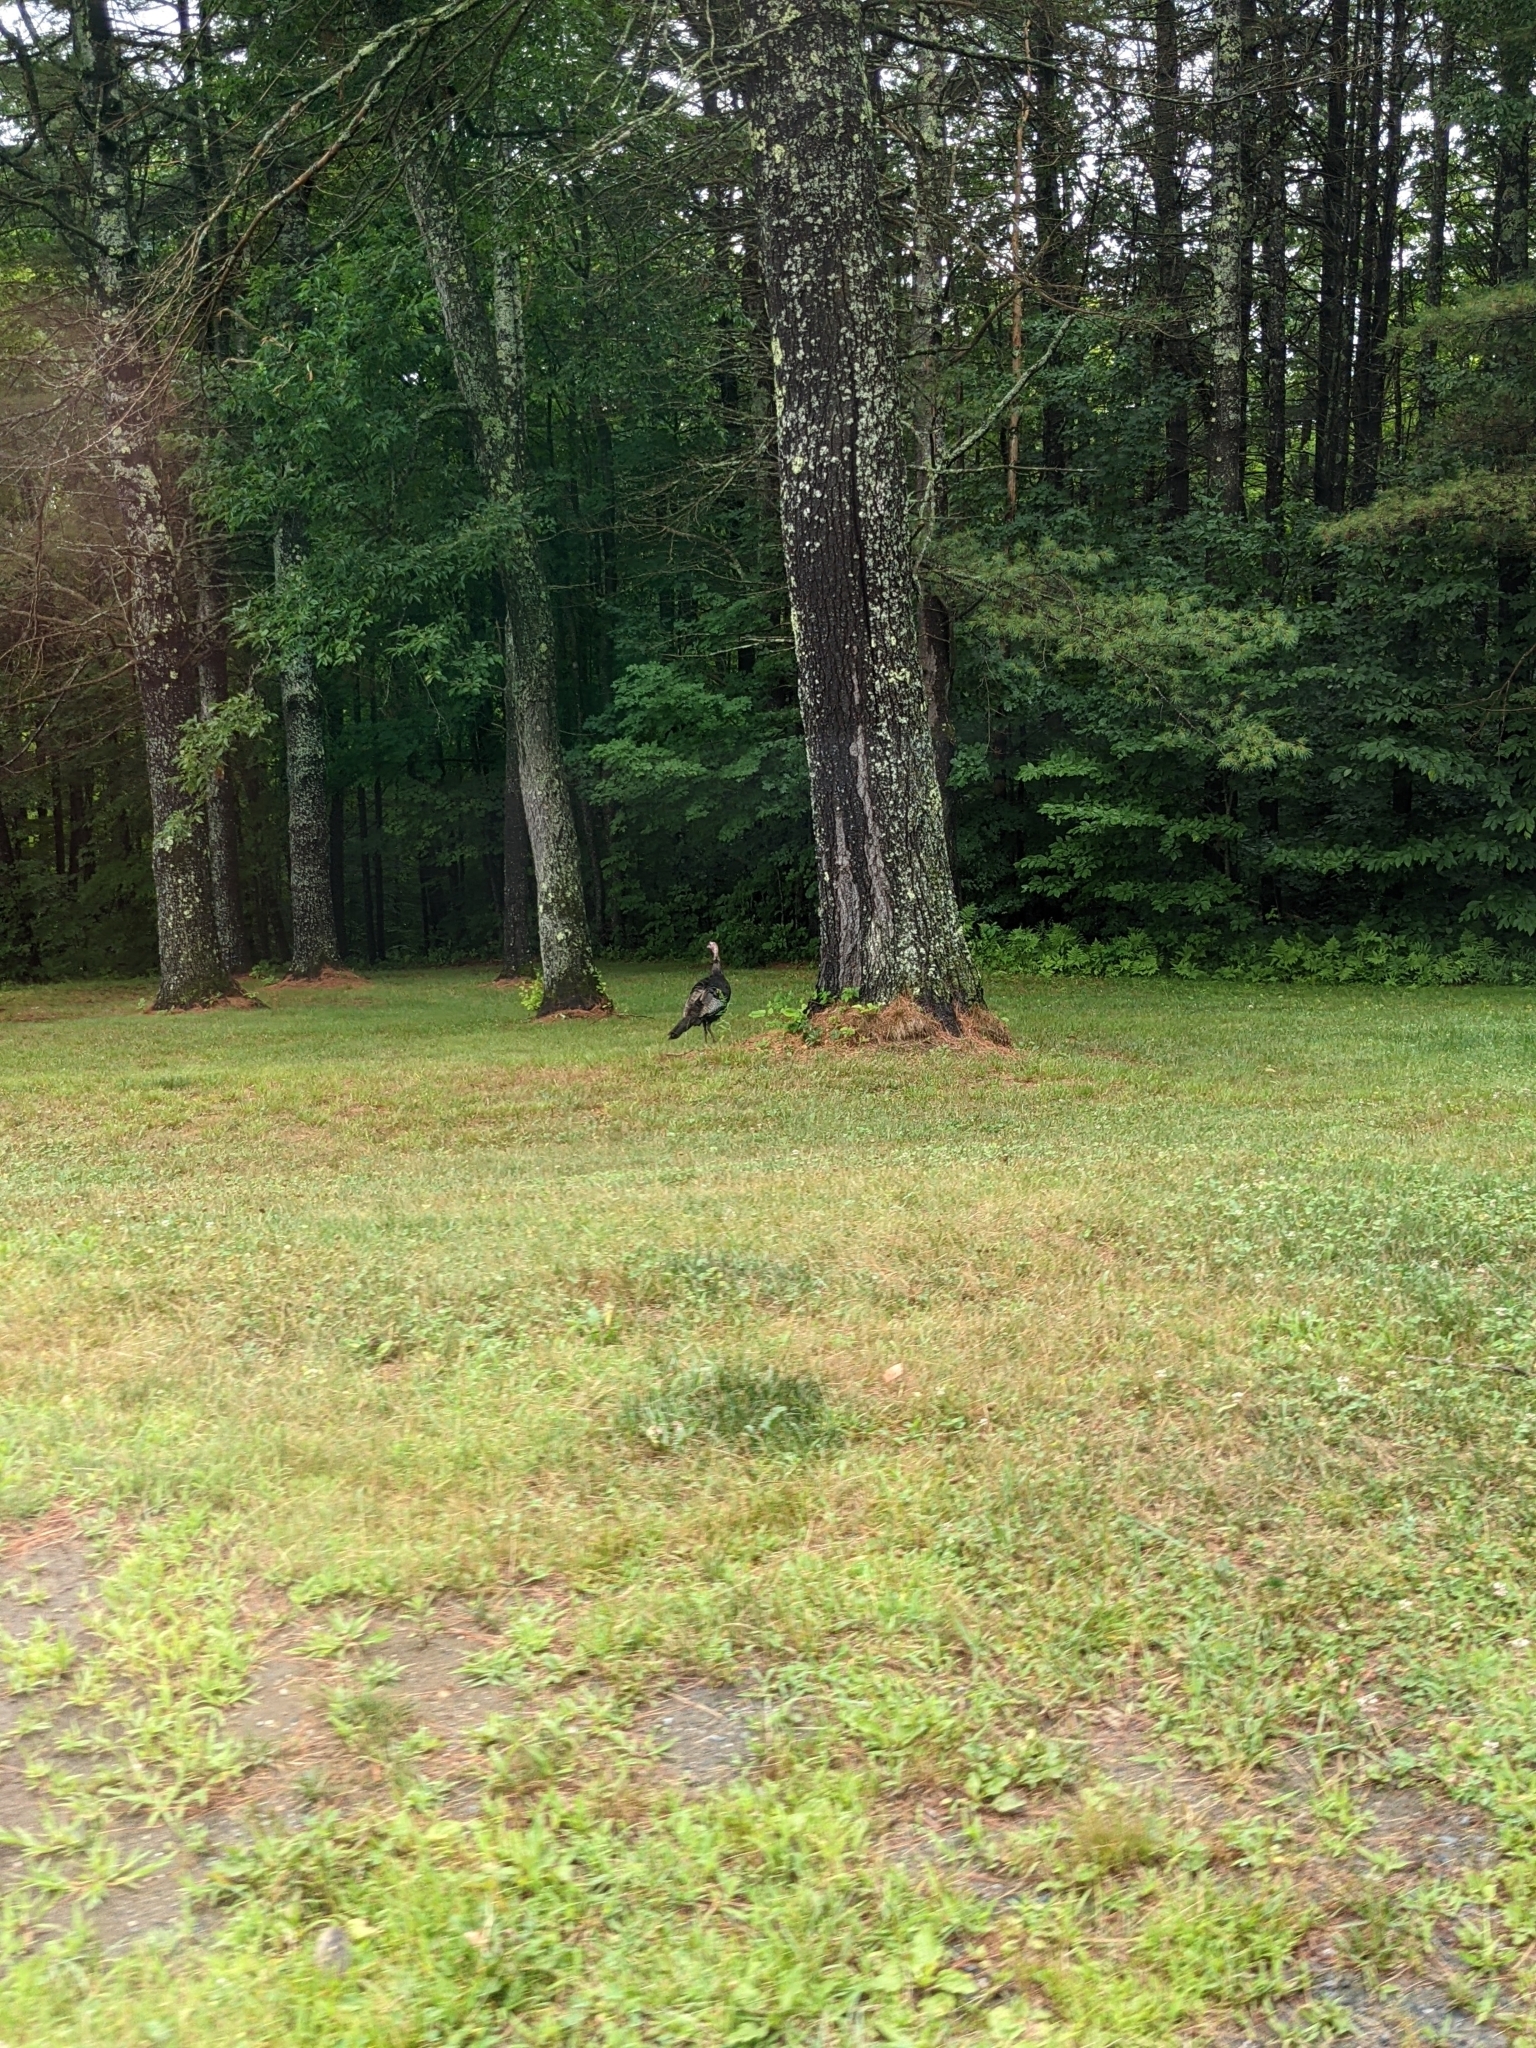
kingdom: Animalia
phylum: Chordata
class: Aves
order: Galliformes
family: Phasianidae
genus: Meleagris
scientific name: Meleagris gallopavo
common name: Wild turkey
